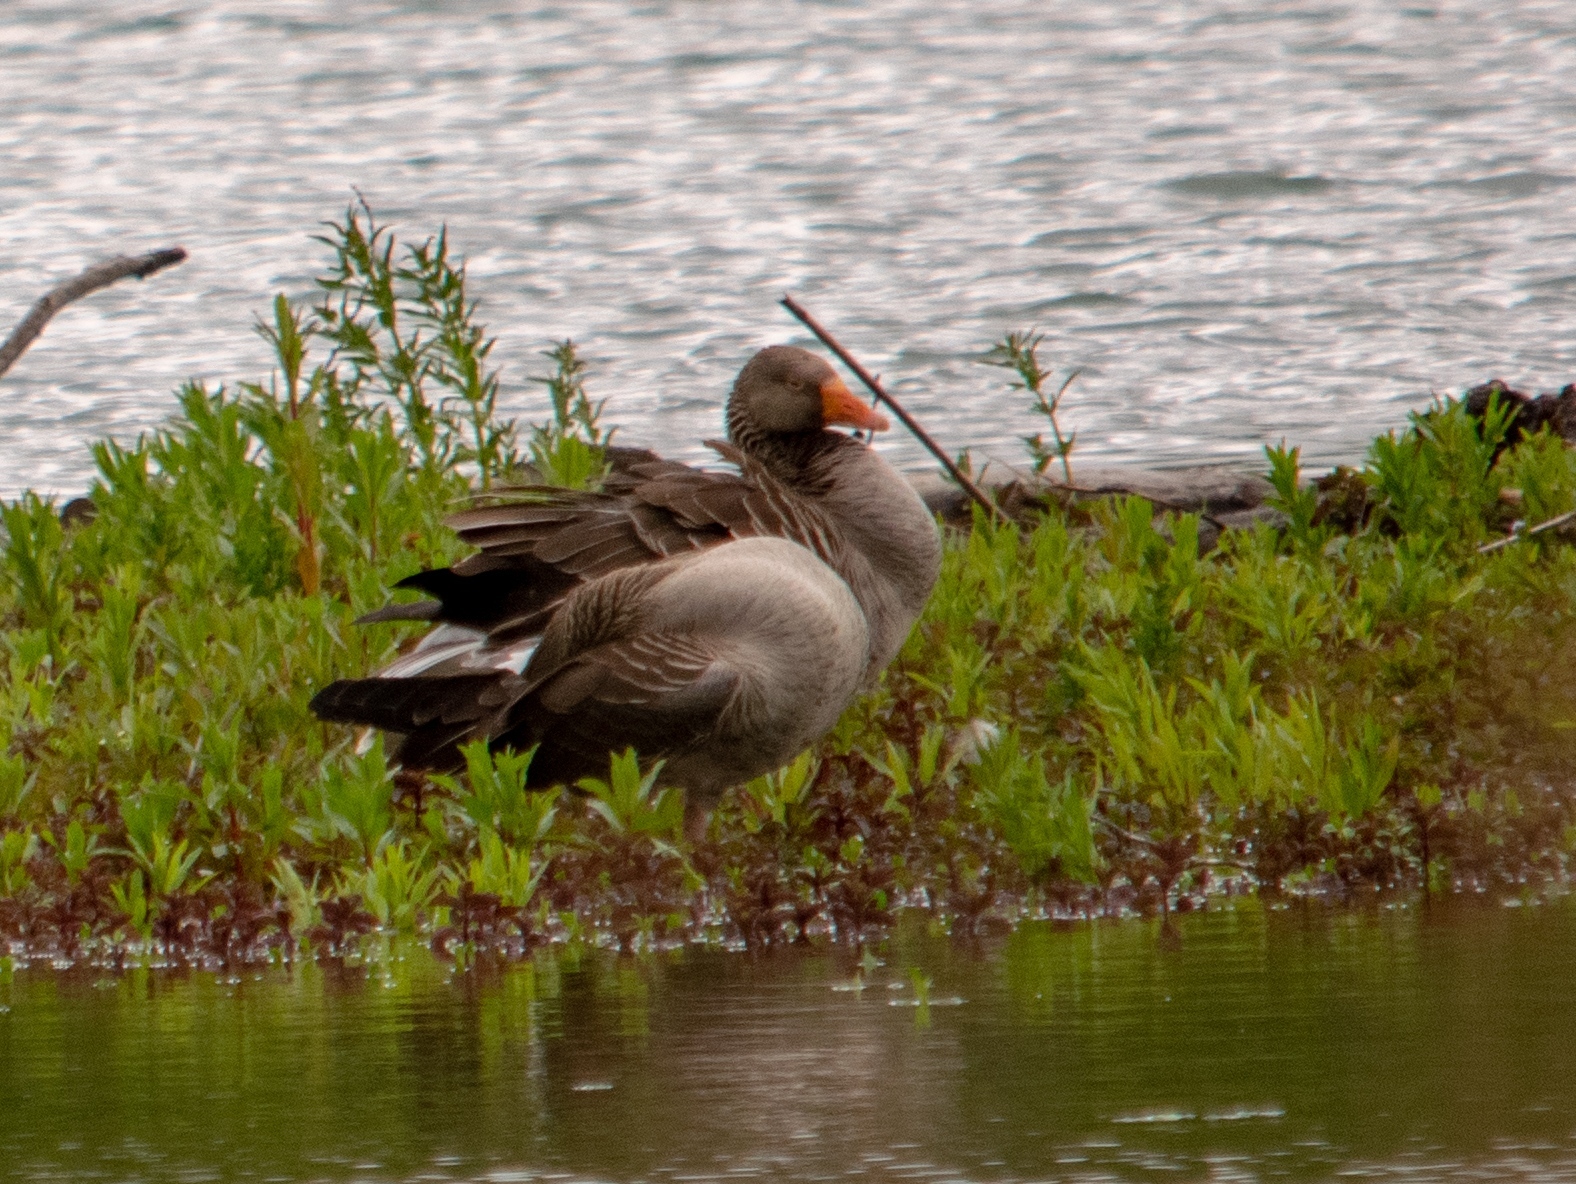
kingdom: Animalia
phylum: Chordata
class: Aves
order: Anseriformes
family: Anatidae
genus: Anser
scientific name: Anser anser
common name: Greylag goose
